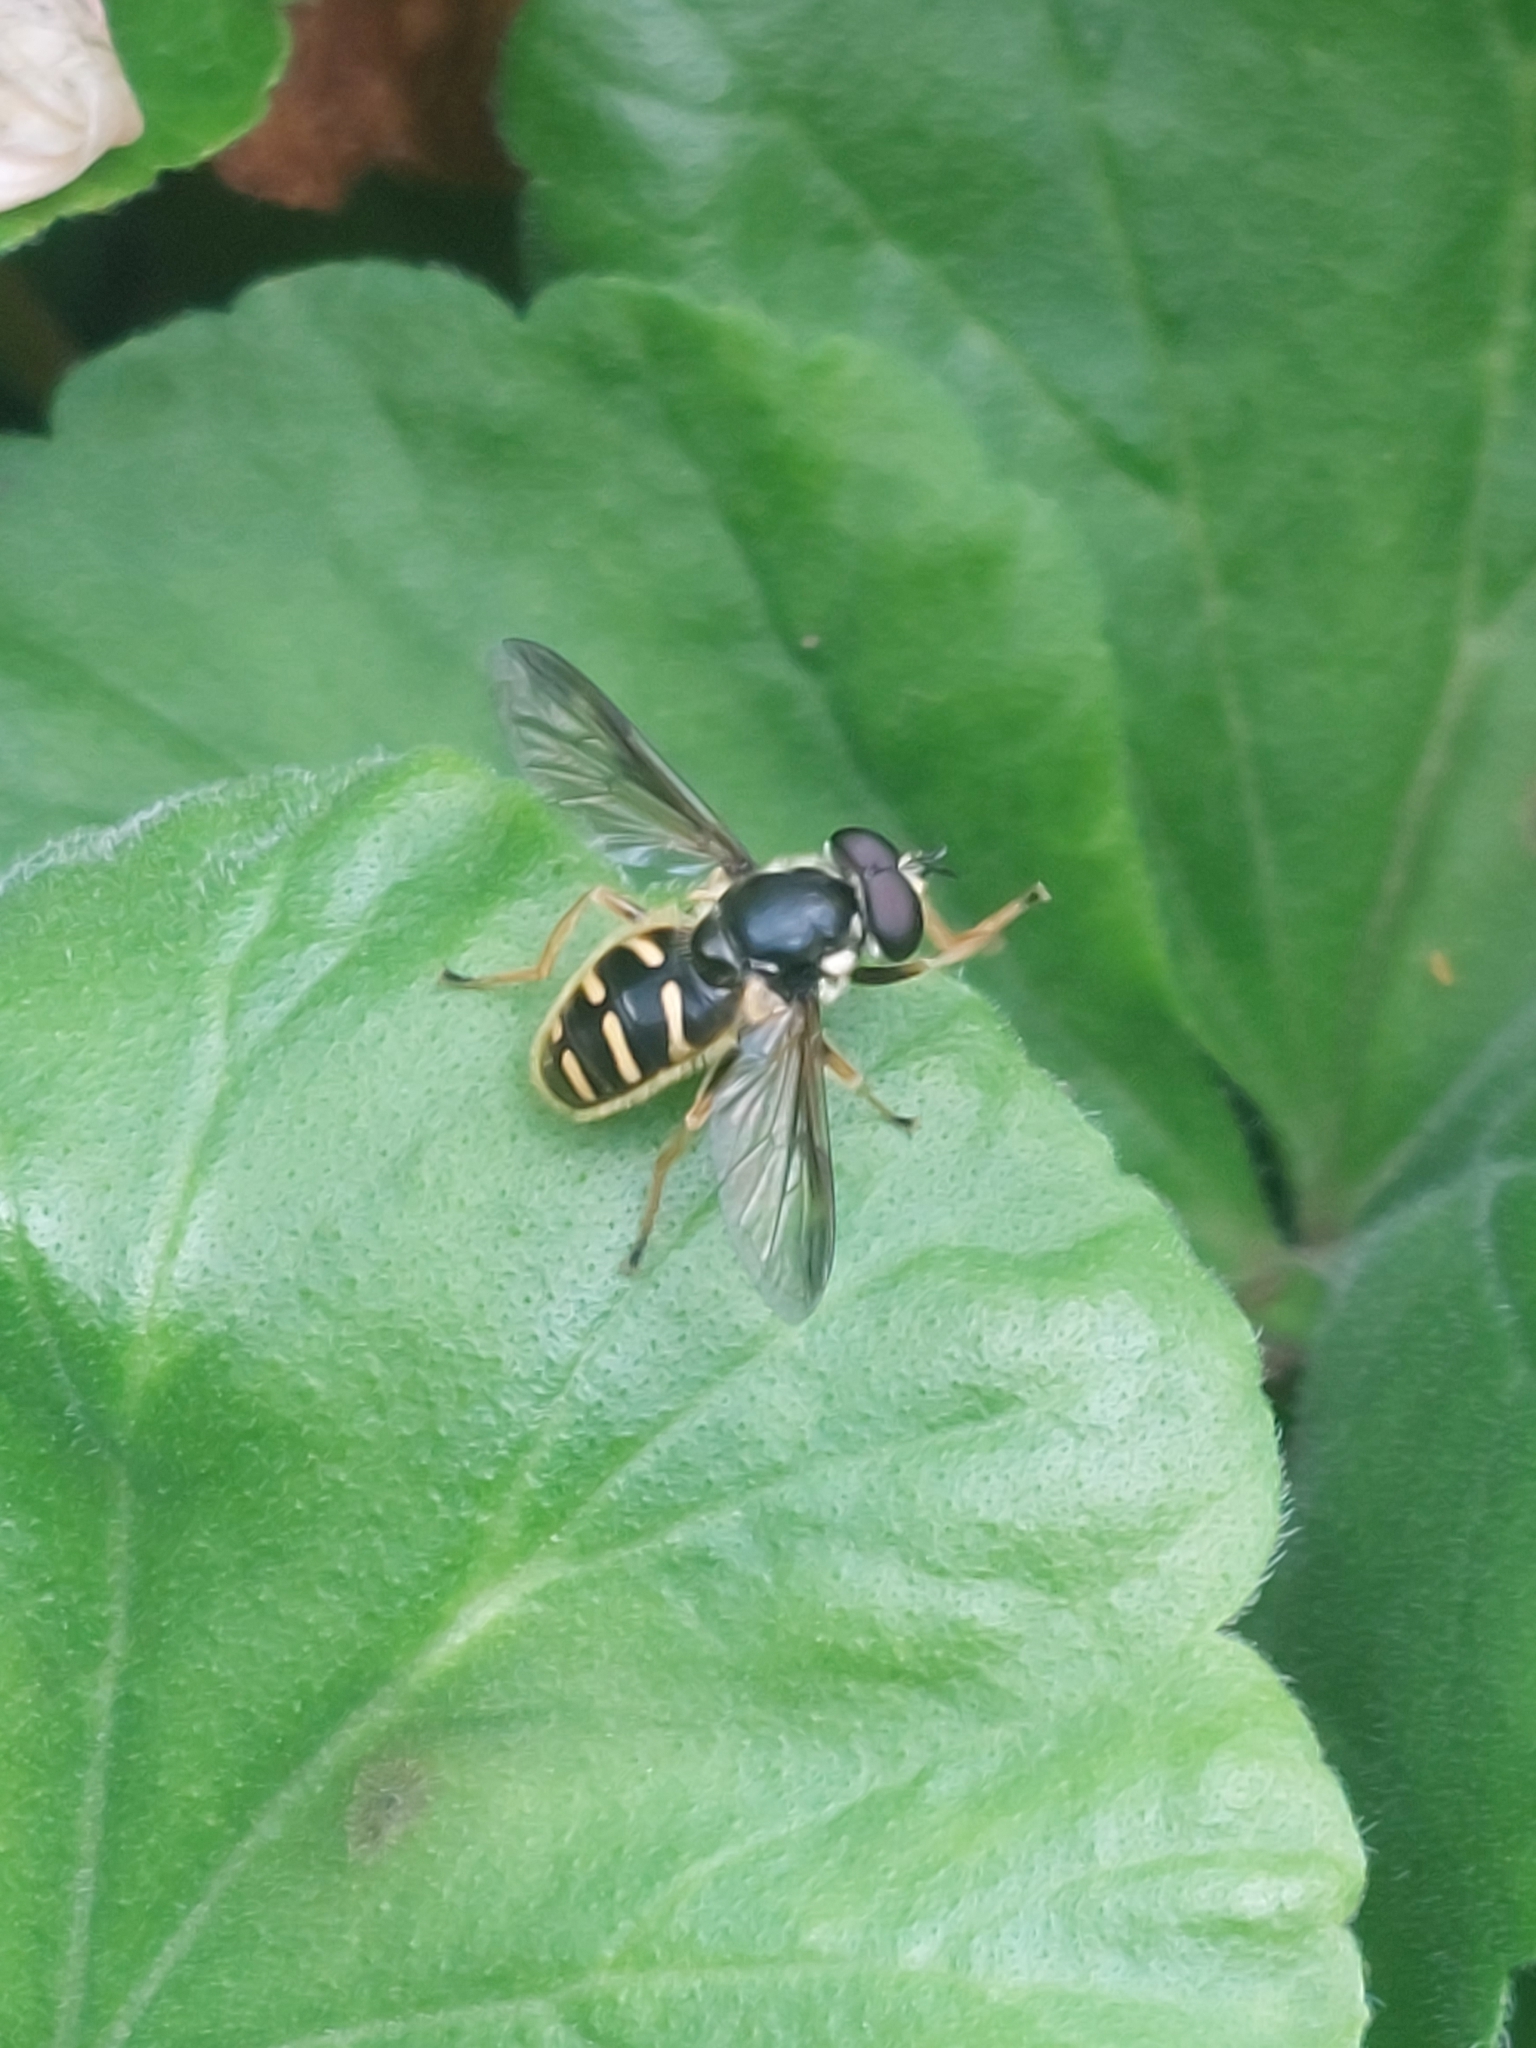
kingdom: Animalia
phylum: Arthropoda
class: Insecta
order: Diptera
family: Syrphidae
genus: Sericomyia
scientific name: Sericomyia chrysotoxoides
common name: Oblique-banded pond fly
